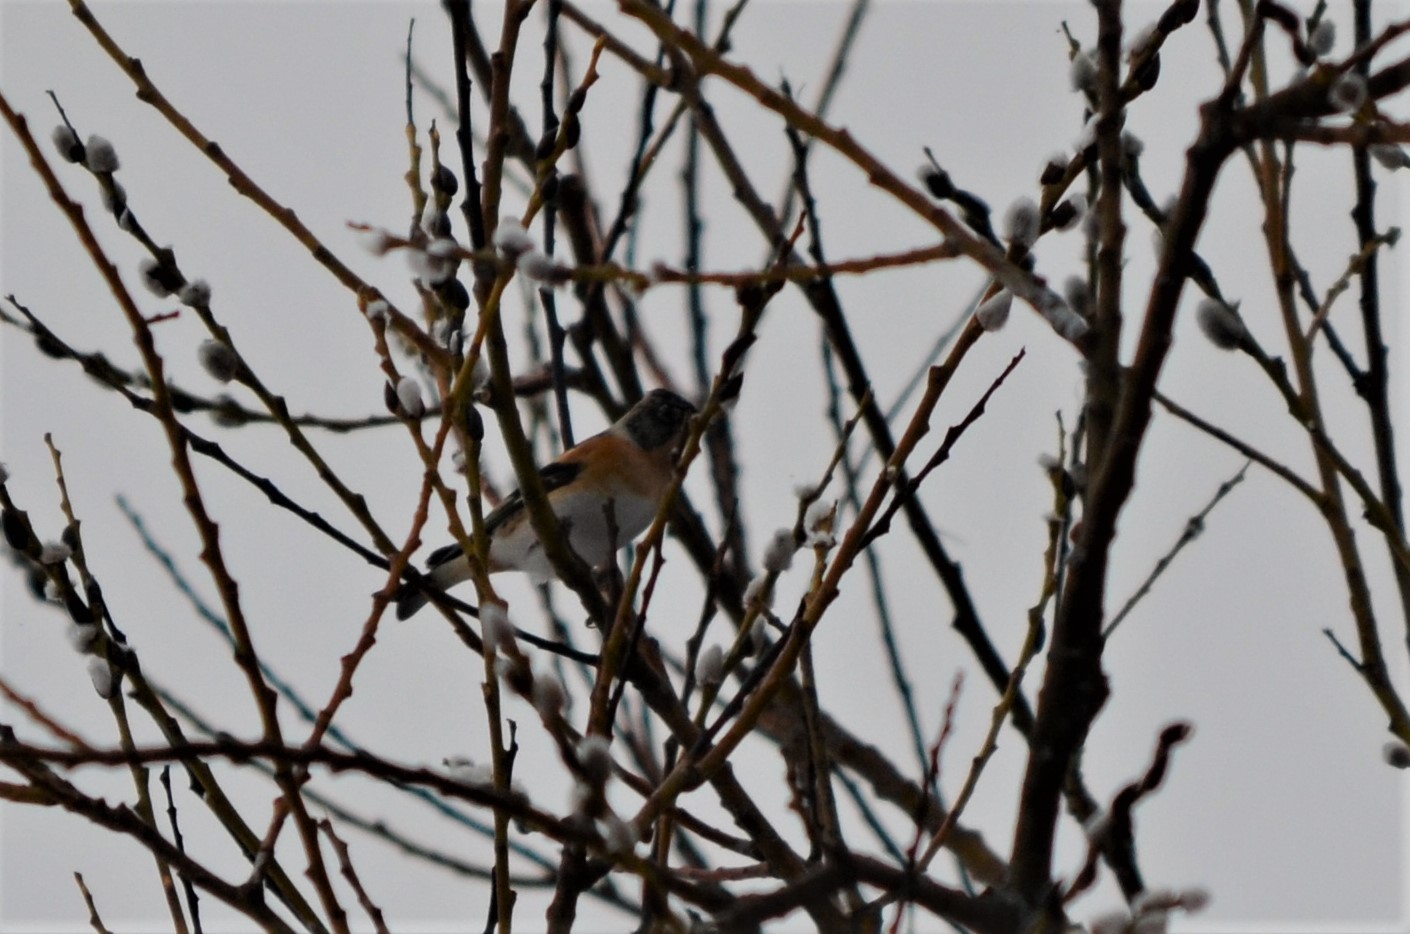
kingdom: Animalia
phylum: Chordata
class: Aves
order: Passeriformes
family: Fringillidae
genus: Fringilla
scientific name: Fringilla montifringilla
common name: Brambling
